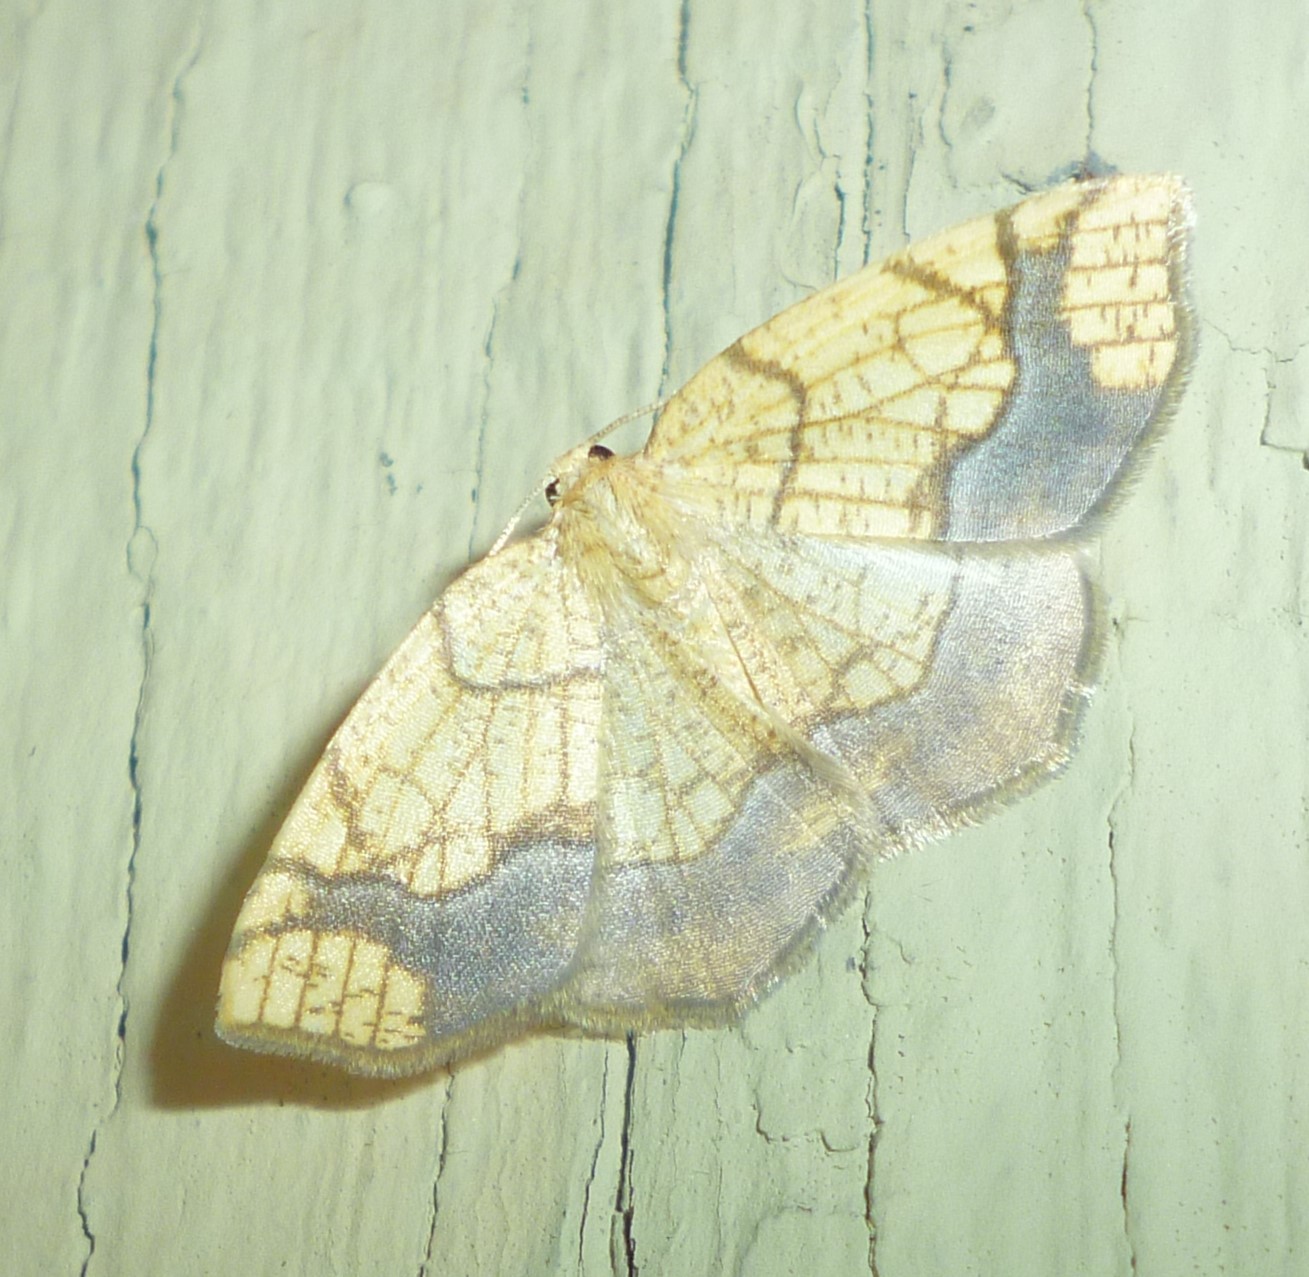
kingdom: Animalia
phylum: Arthropoda
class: Insecta
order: Lepidoptera
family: Geometridae
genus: Nematocampa
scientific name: Nematocampa resistaria
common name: Horned spanworm moth
